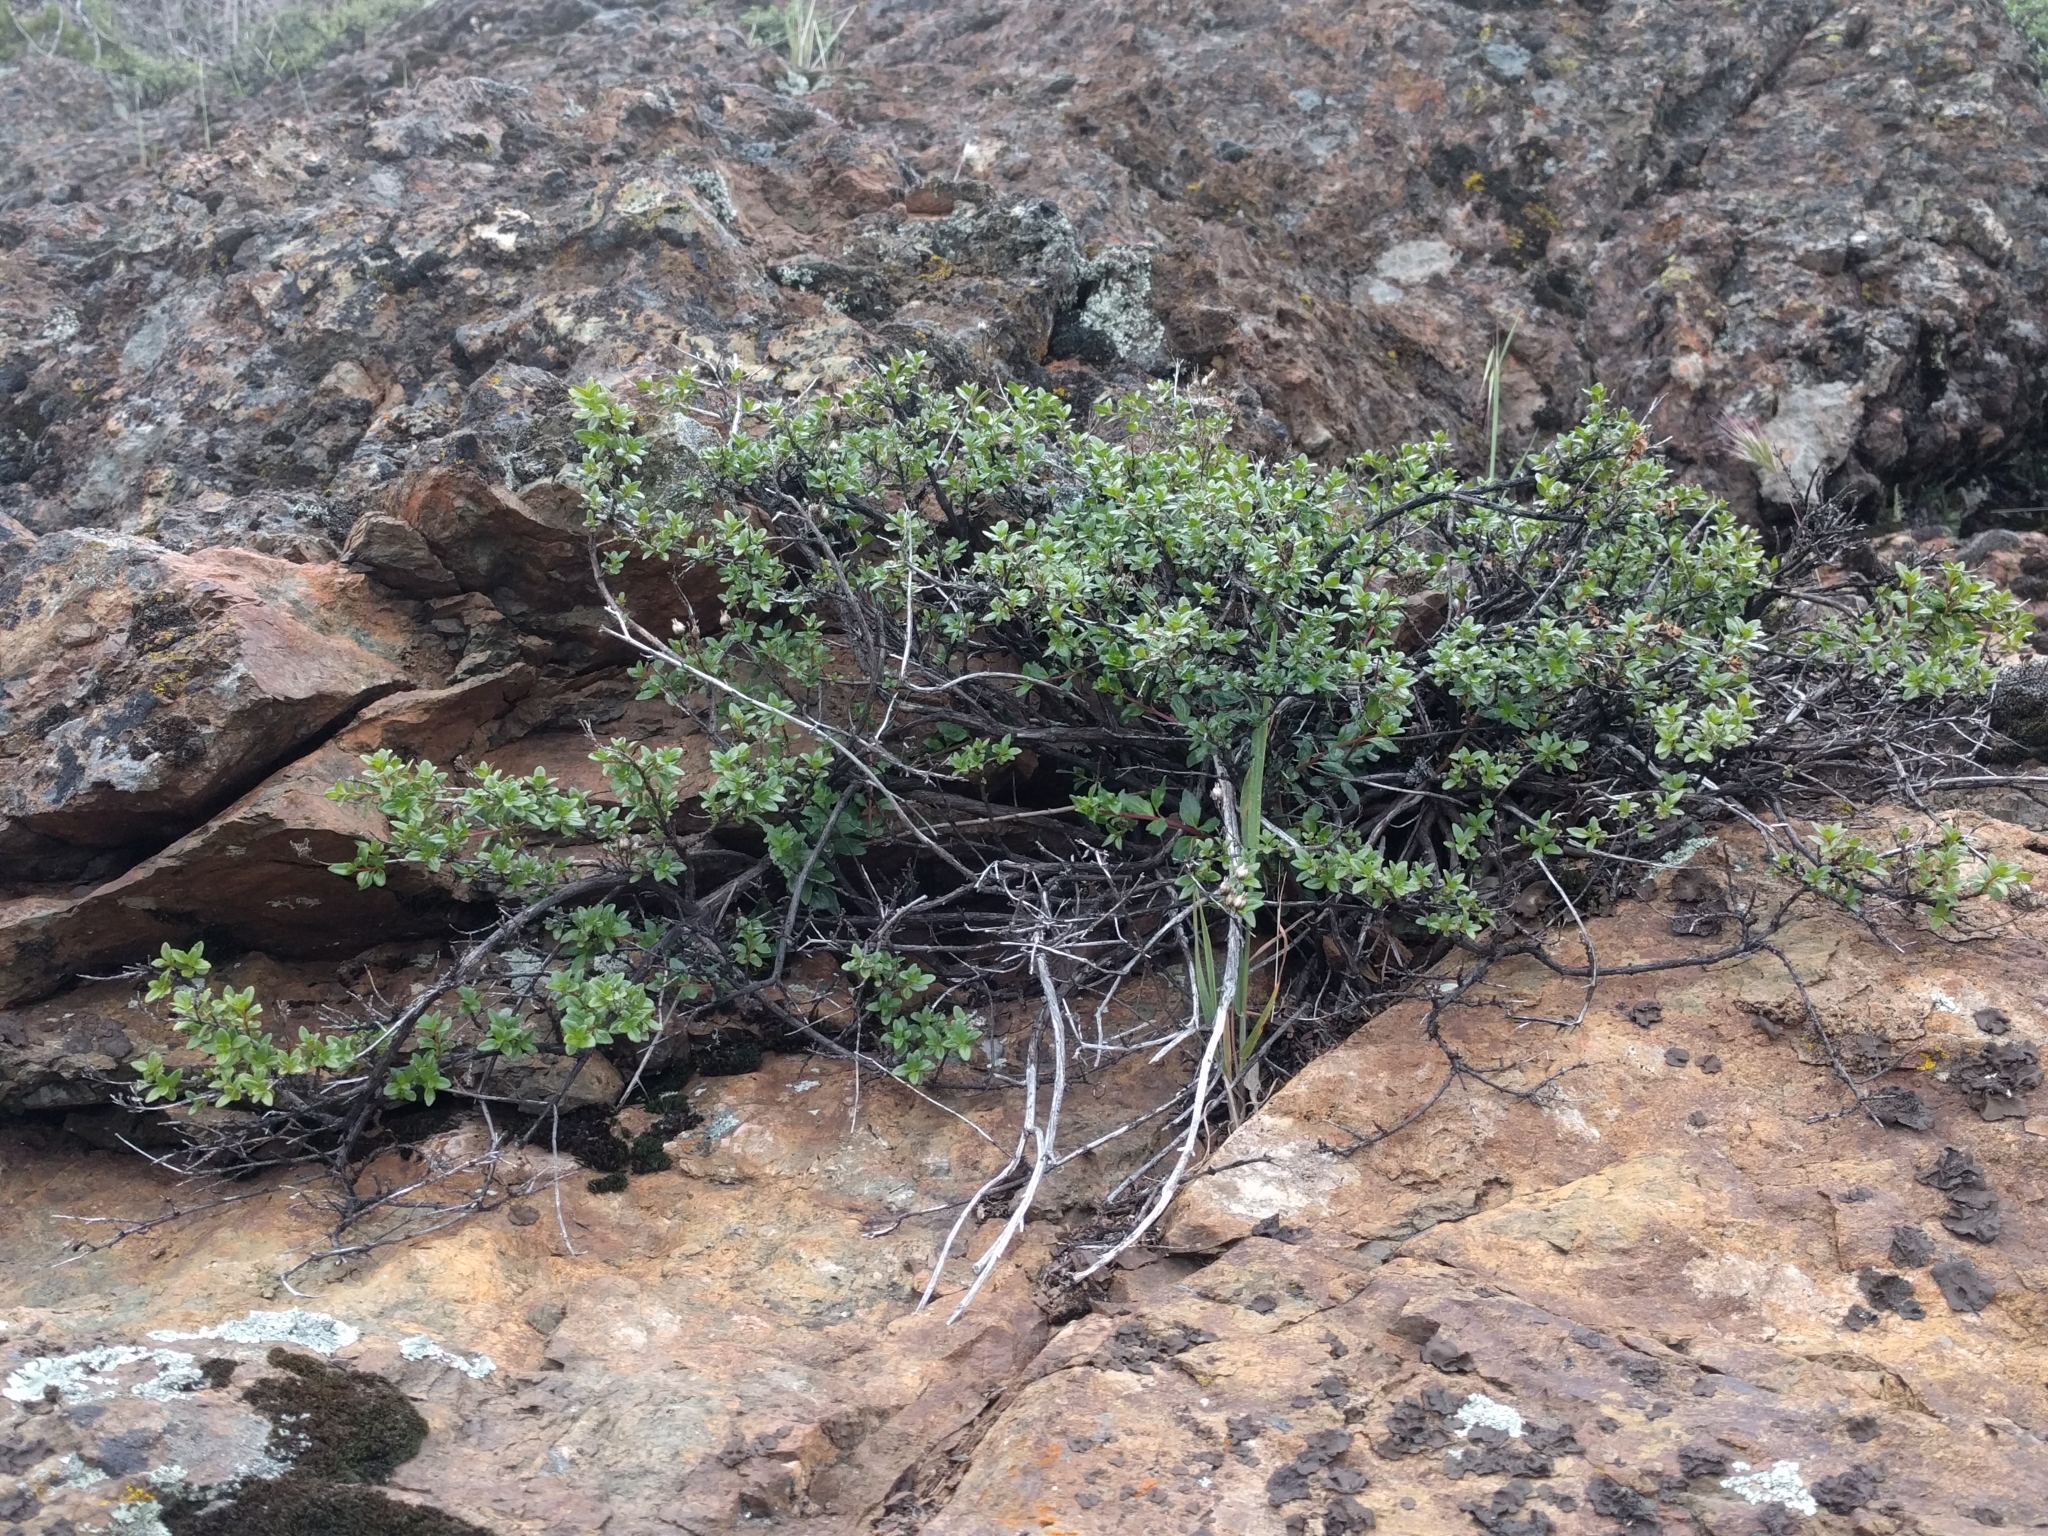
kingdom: Plantae
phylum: Tracheophyta
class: Magnoliopsida
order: Lamiales
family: Plantaginaceae
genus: Keckiella
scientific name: Keckiella corymbosa
